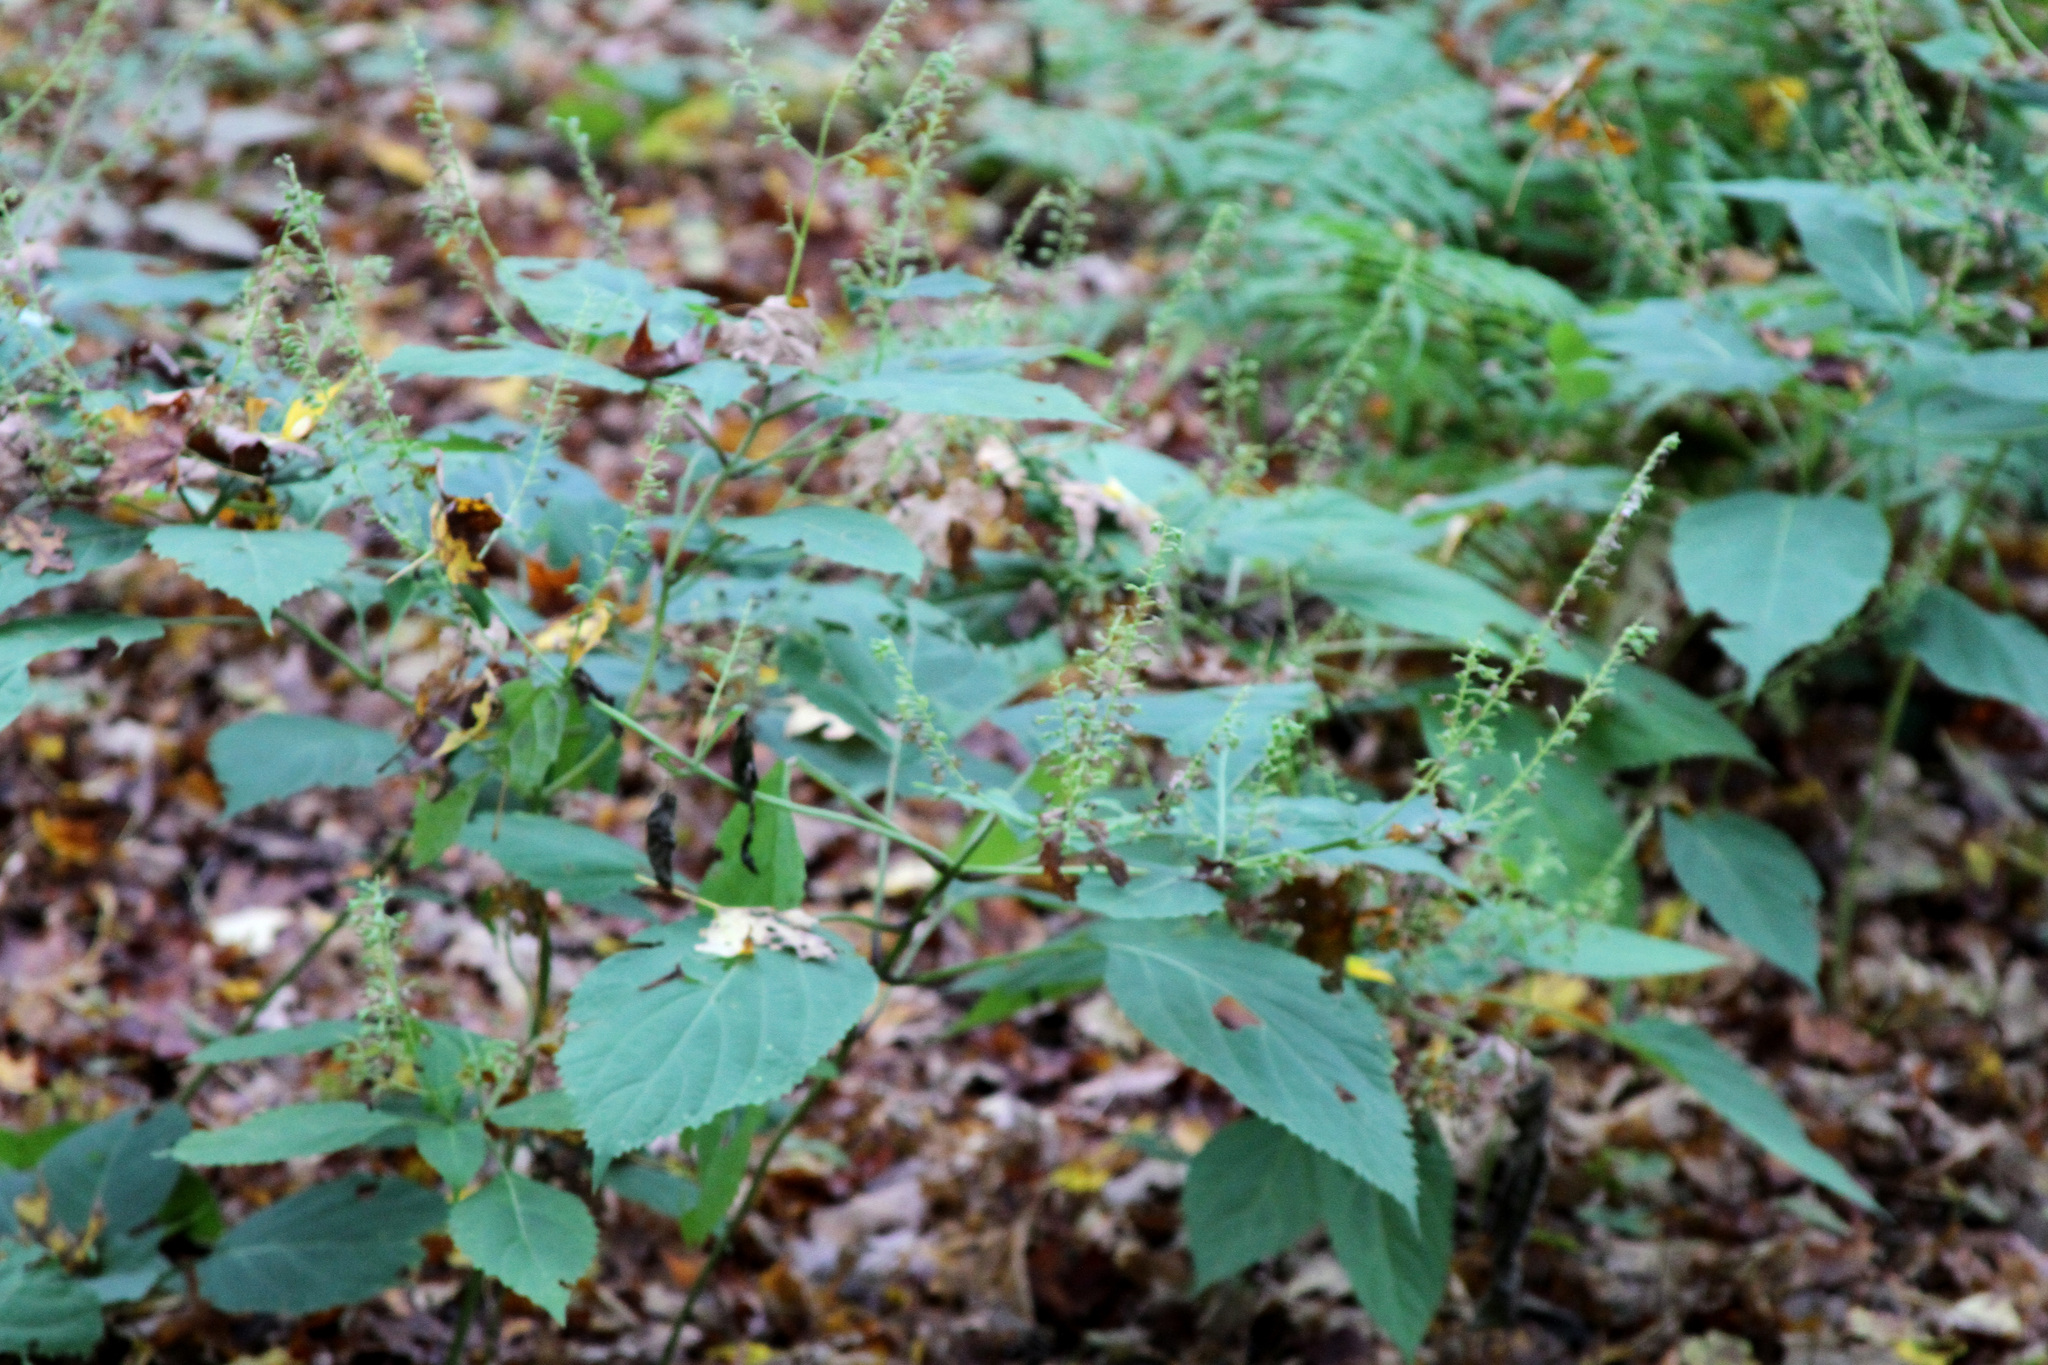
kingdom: Plantae
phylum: Tracheophyta
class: Magnoliopsida
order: Lamiales
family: Lamiaceae
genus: Collinsonia
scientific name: Collinsonia canadensis
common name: Northern horsebalm
